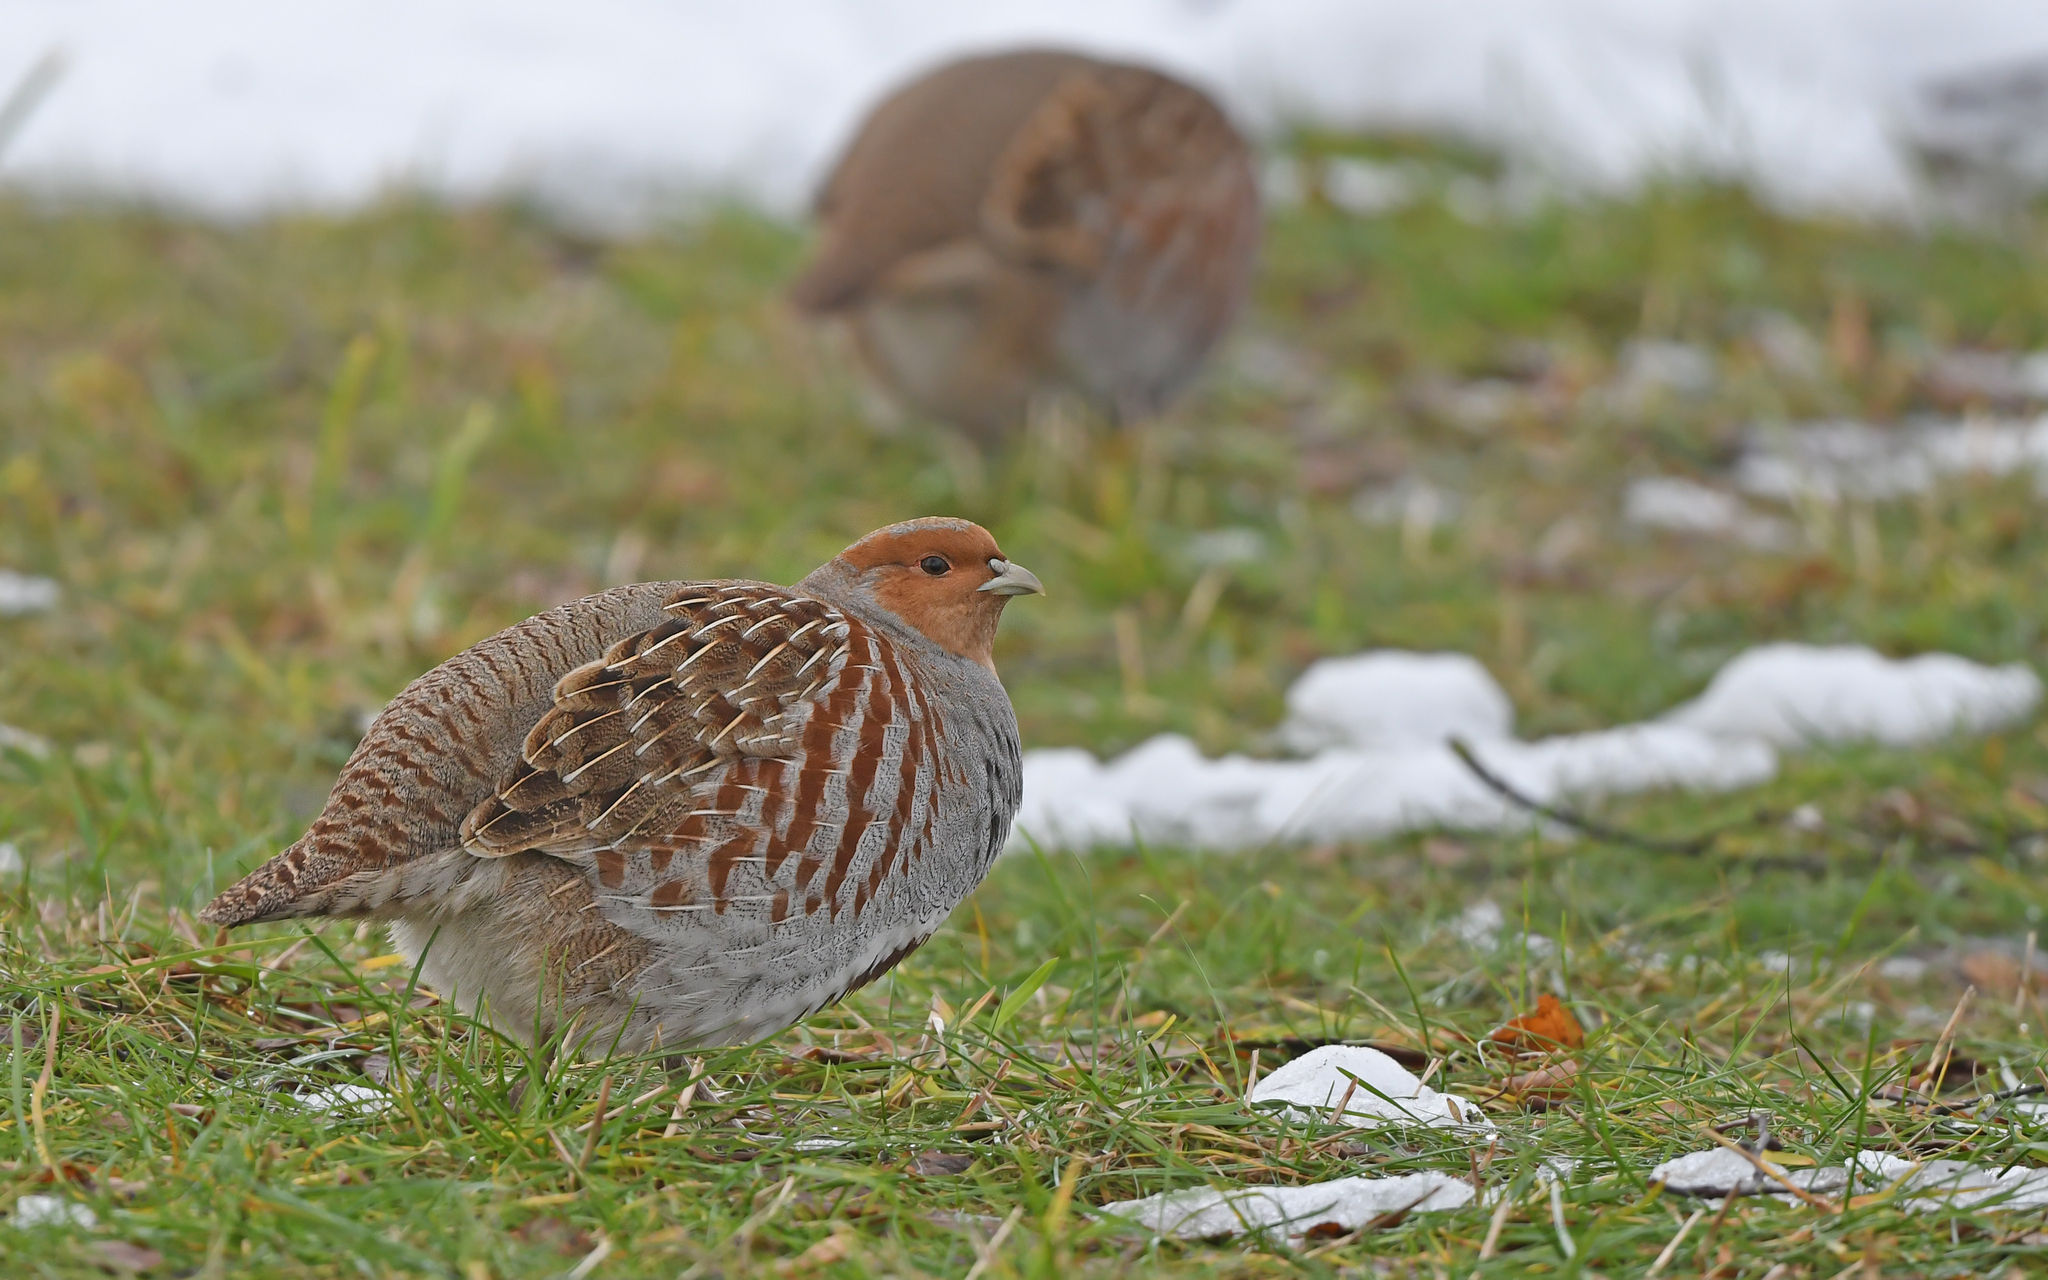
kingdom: Animalia
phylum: Chordata
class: Aves
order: Galliformes
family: Phasianidae
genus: Perdix
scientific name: Perdix perdix
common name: Grey partridge
